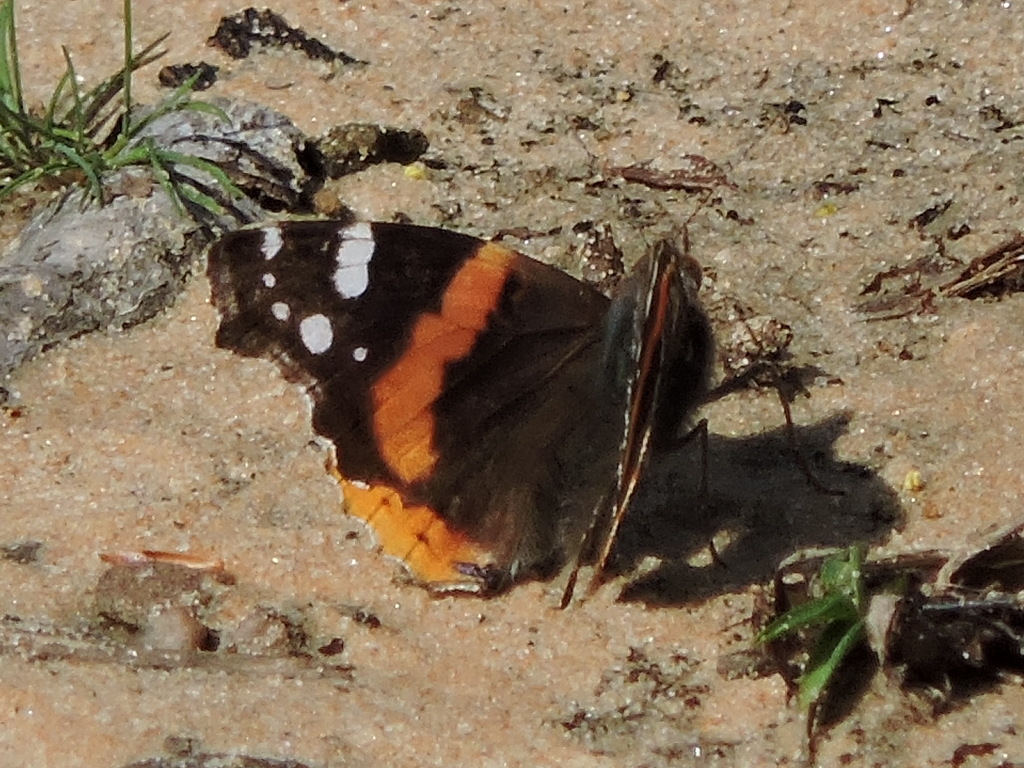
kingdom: Animalia
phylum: Arthropoda
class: Insecta
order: Lepidoptera
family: Nymphalidae
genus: Vanessa
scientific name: Vanessa atalanta
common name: Red admiral
